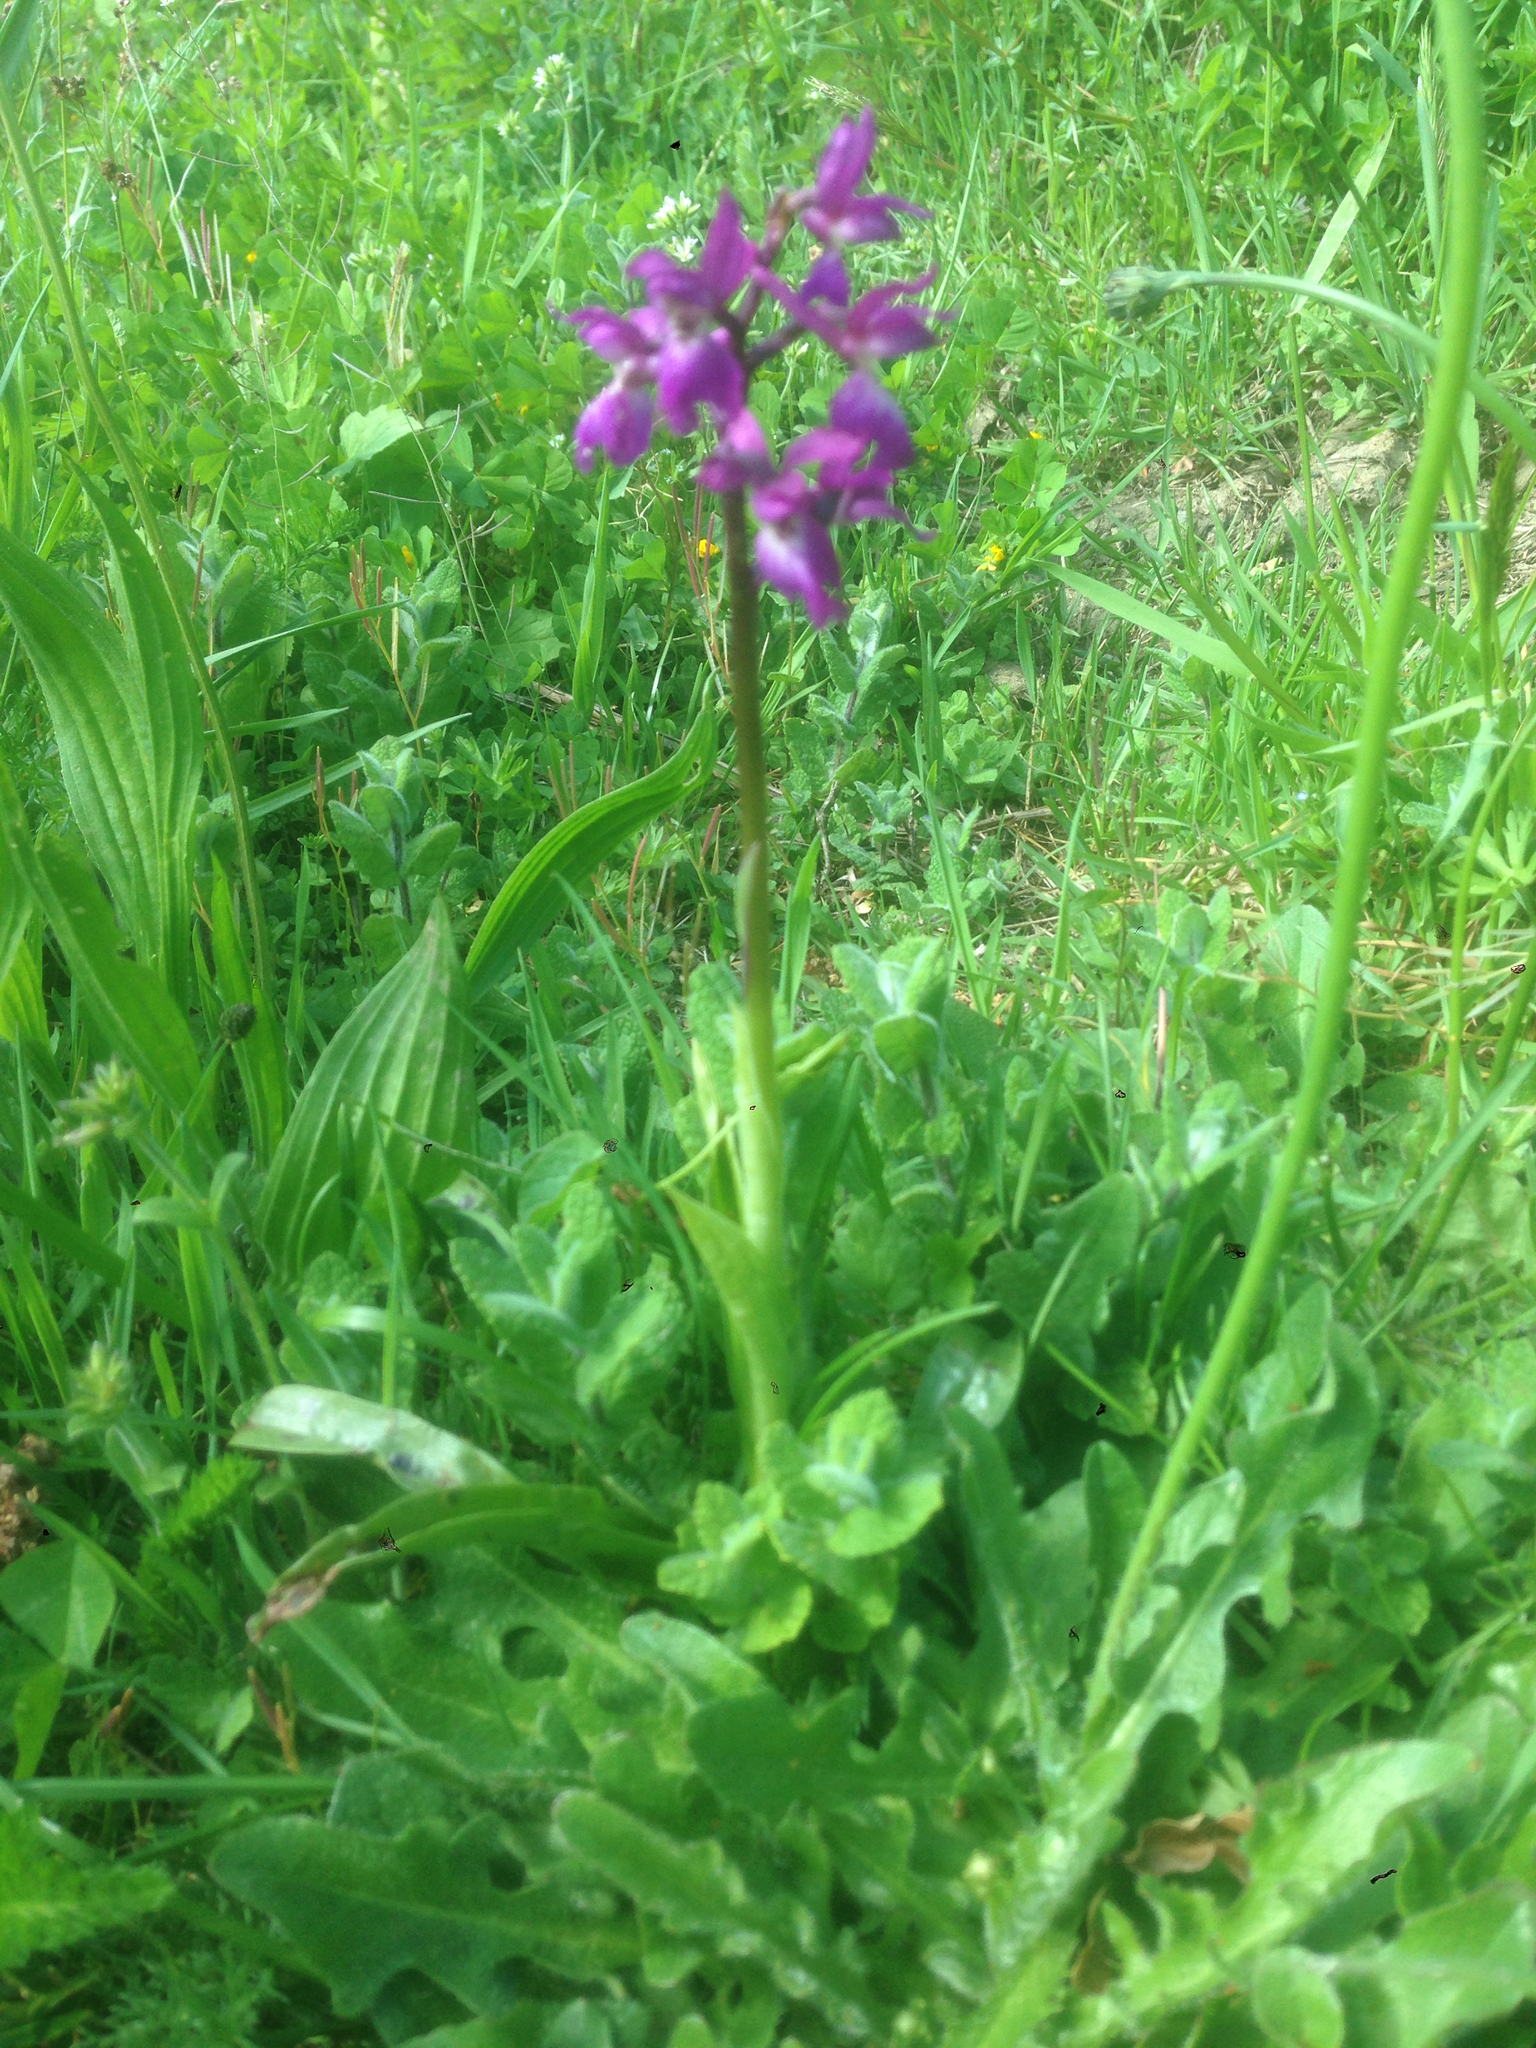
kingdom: Plantae
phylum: Tracheophyta
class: Liliopsida
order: Asparagales
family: Orchidaceae
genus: Orchis
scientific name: Orchis mascula
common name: Early-purple orchid
